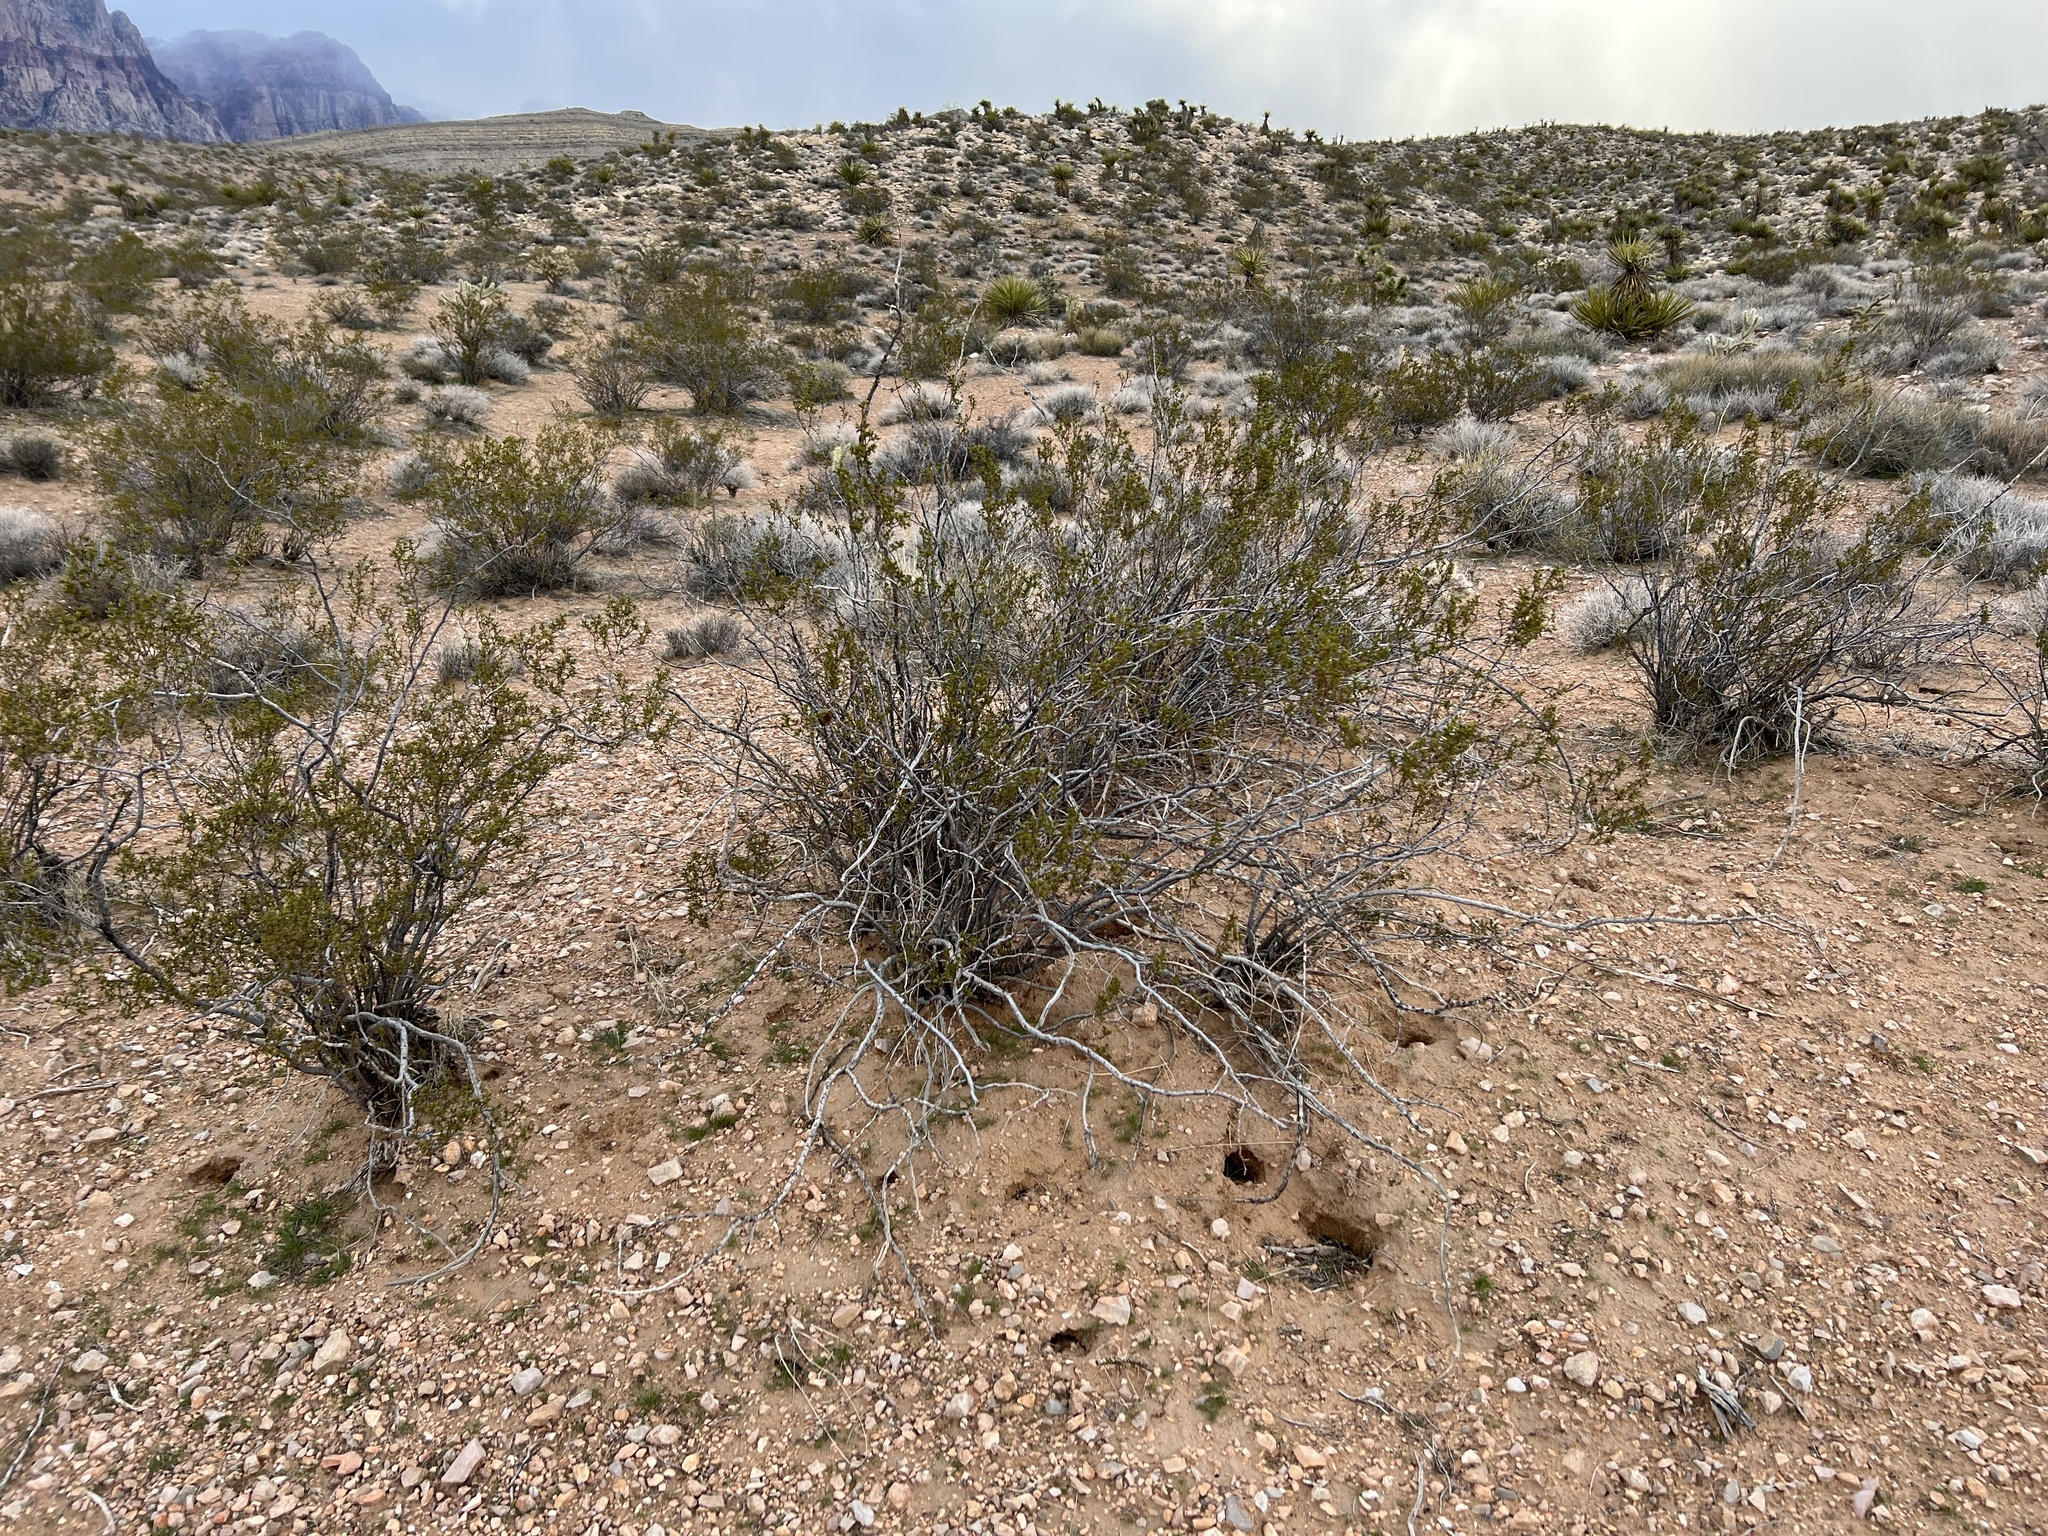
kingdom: Plantae
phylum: Tracheophyta
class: Magnoliopsida
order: Zygophyllales
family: Zygophyllaceae
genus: Larrea
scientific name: Larrea tridentata
